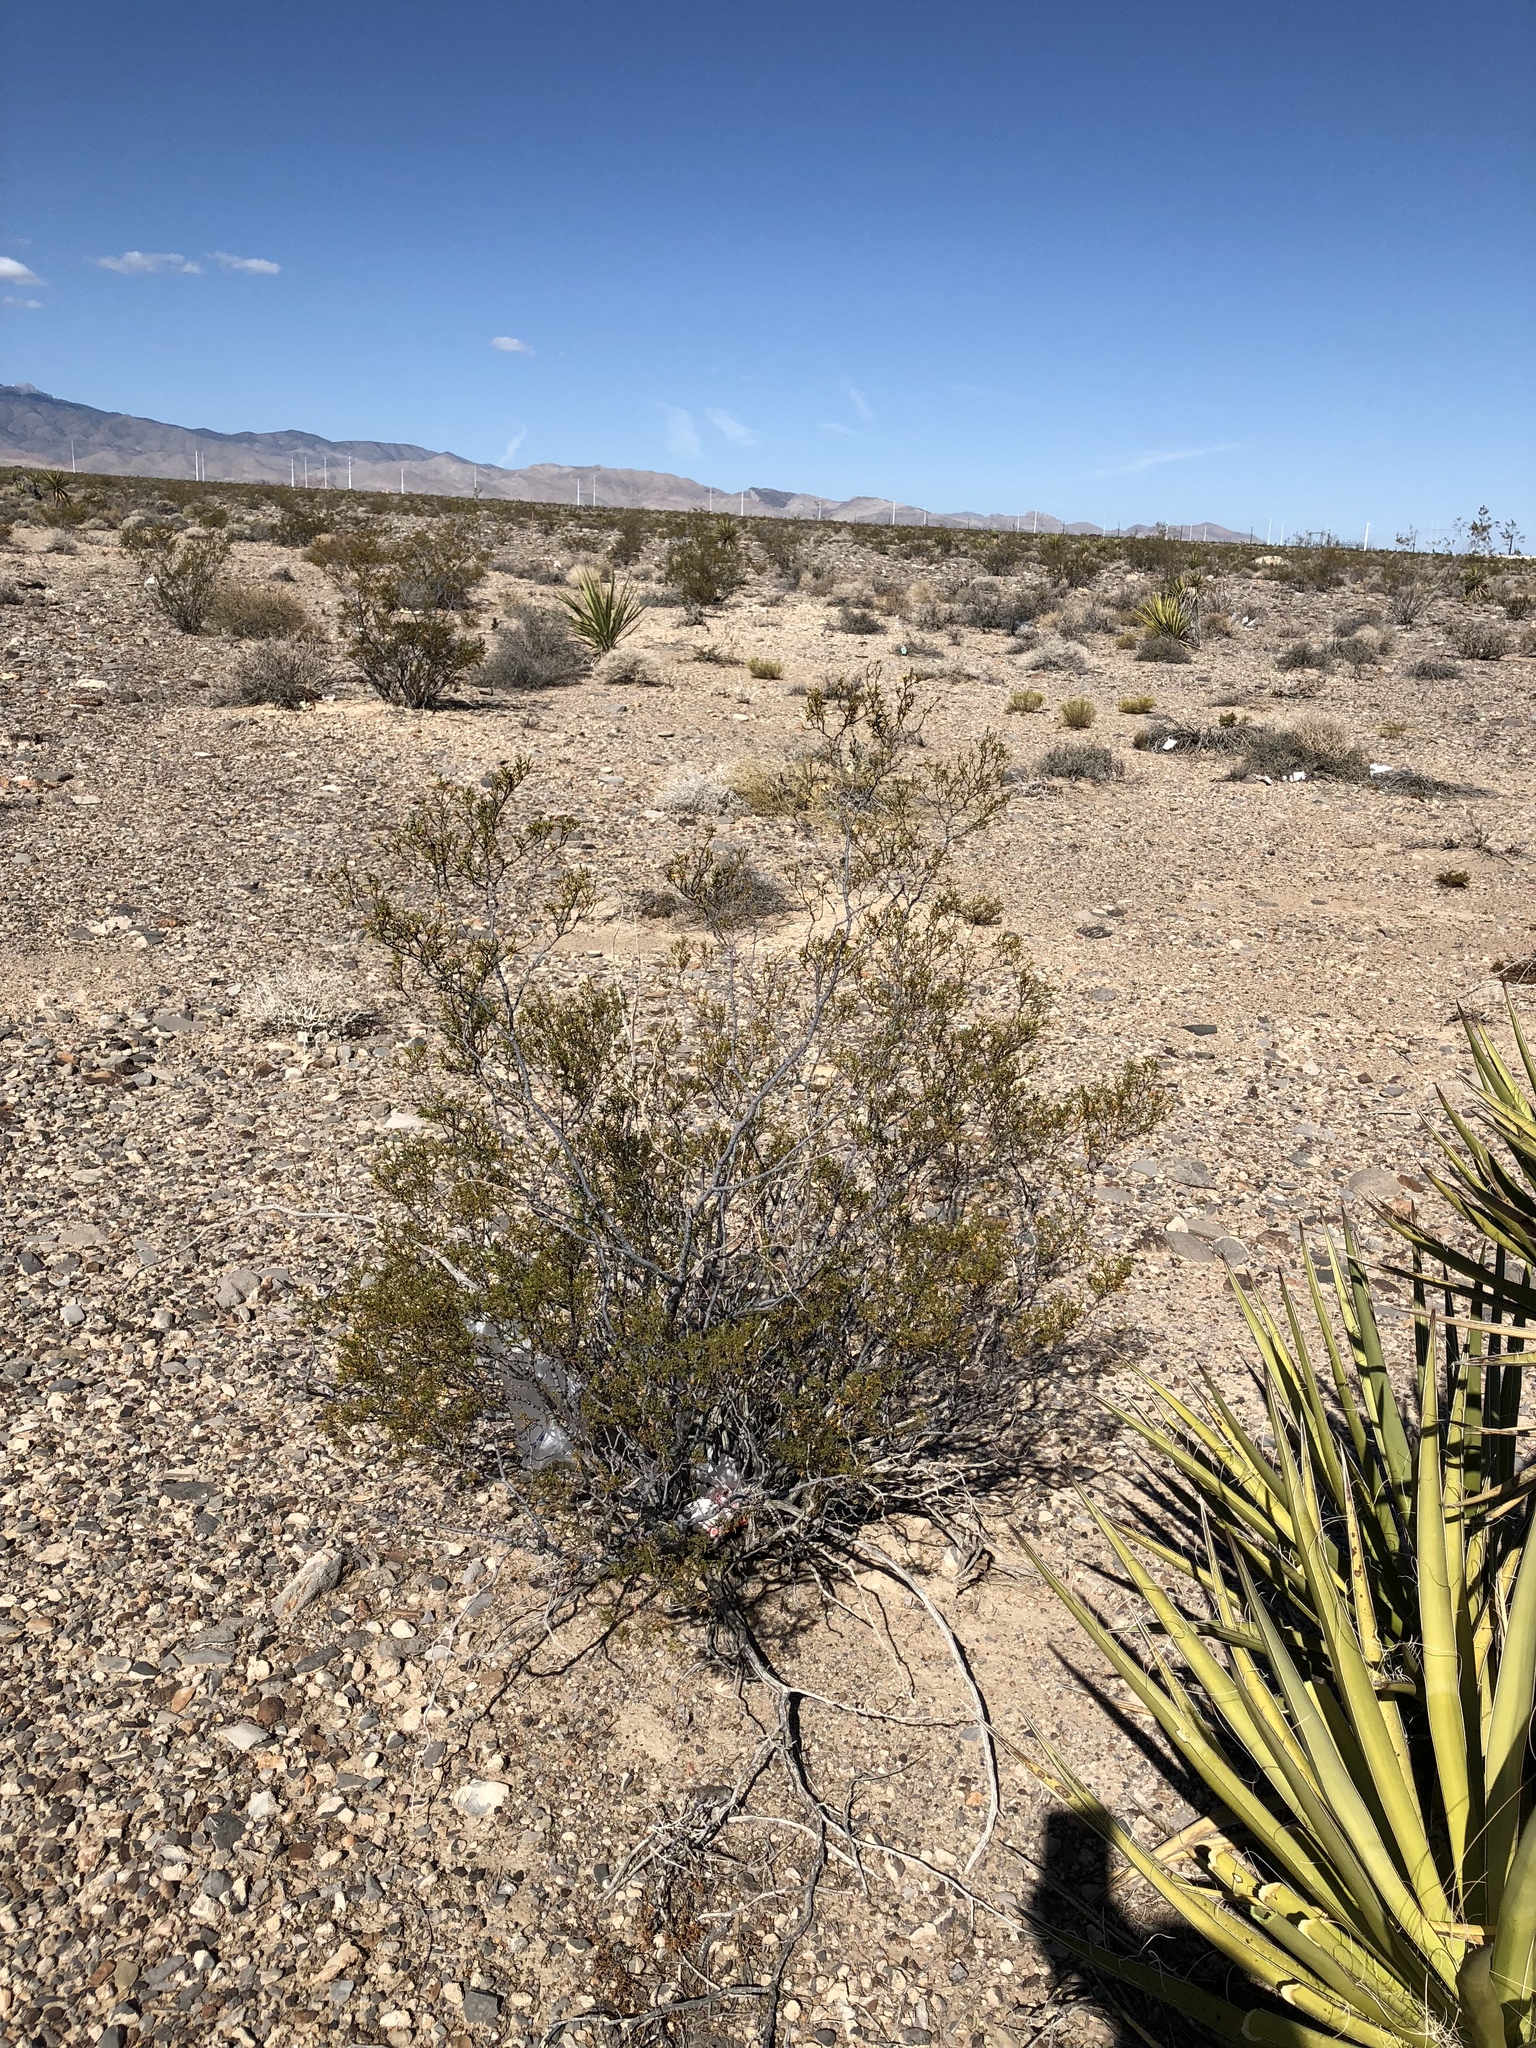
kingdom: Plantae
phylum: Tracheophyta
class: Magnoliopsida
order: Zygophyllales
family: Zygophyllaceae
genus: Larrea
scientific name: Larrea tridentata
